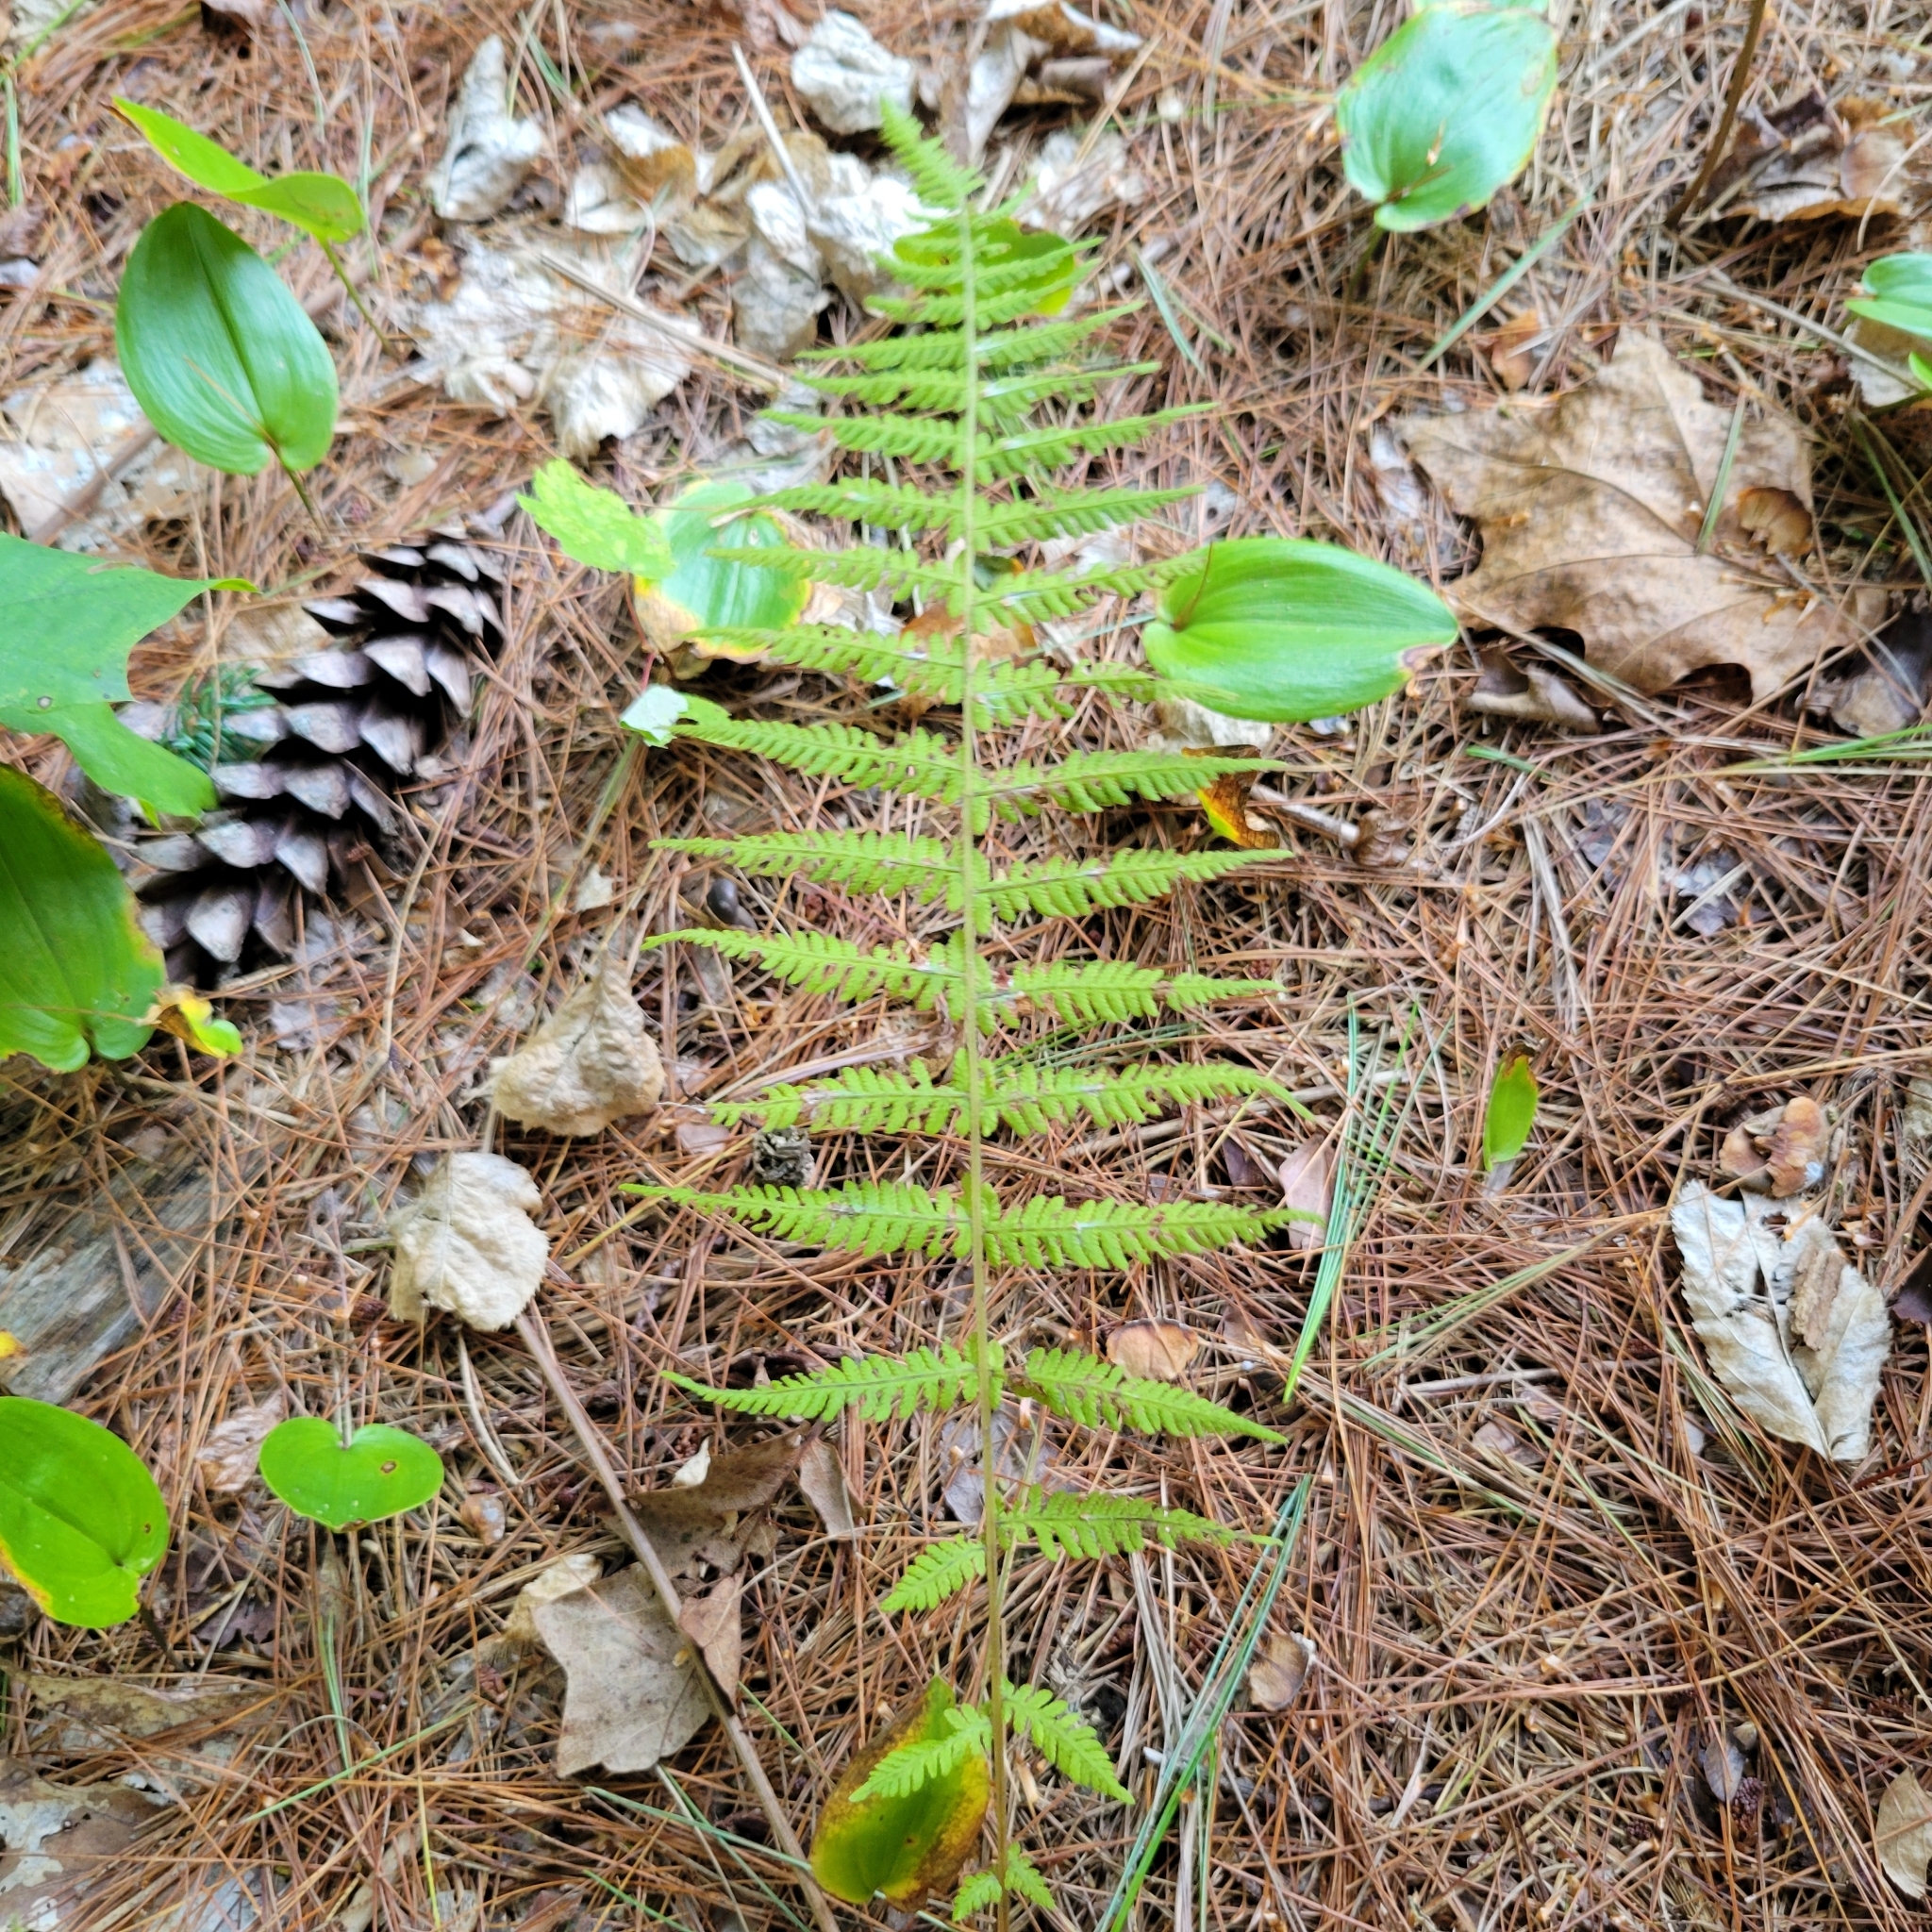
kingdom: Plantae
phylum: Tracheophyta
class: Polypodiopsida
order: Polypodiales
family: Thelypteridaceae
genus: Amauropelta
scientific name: Amauropelta noveboracensis
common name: New york fern
